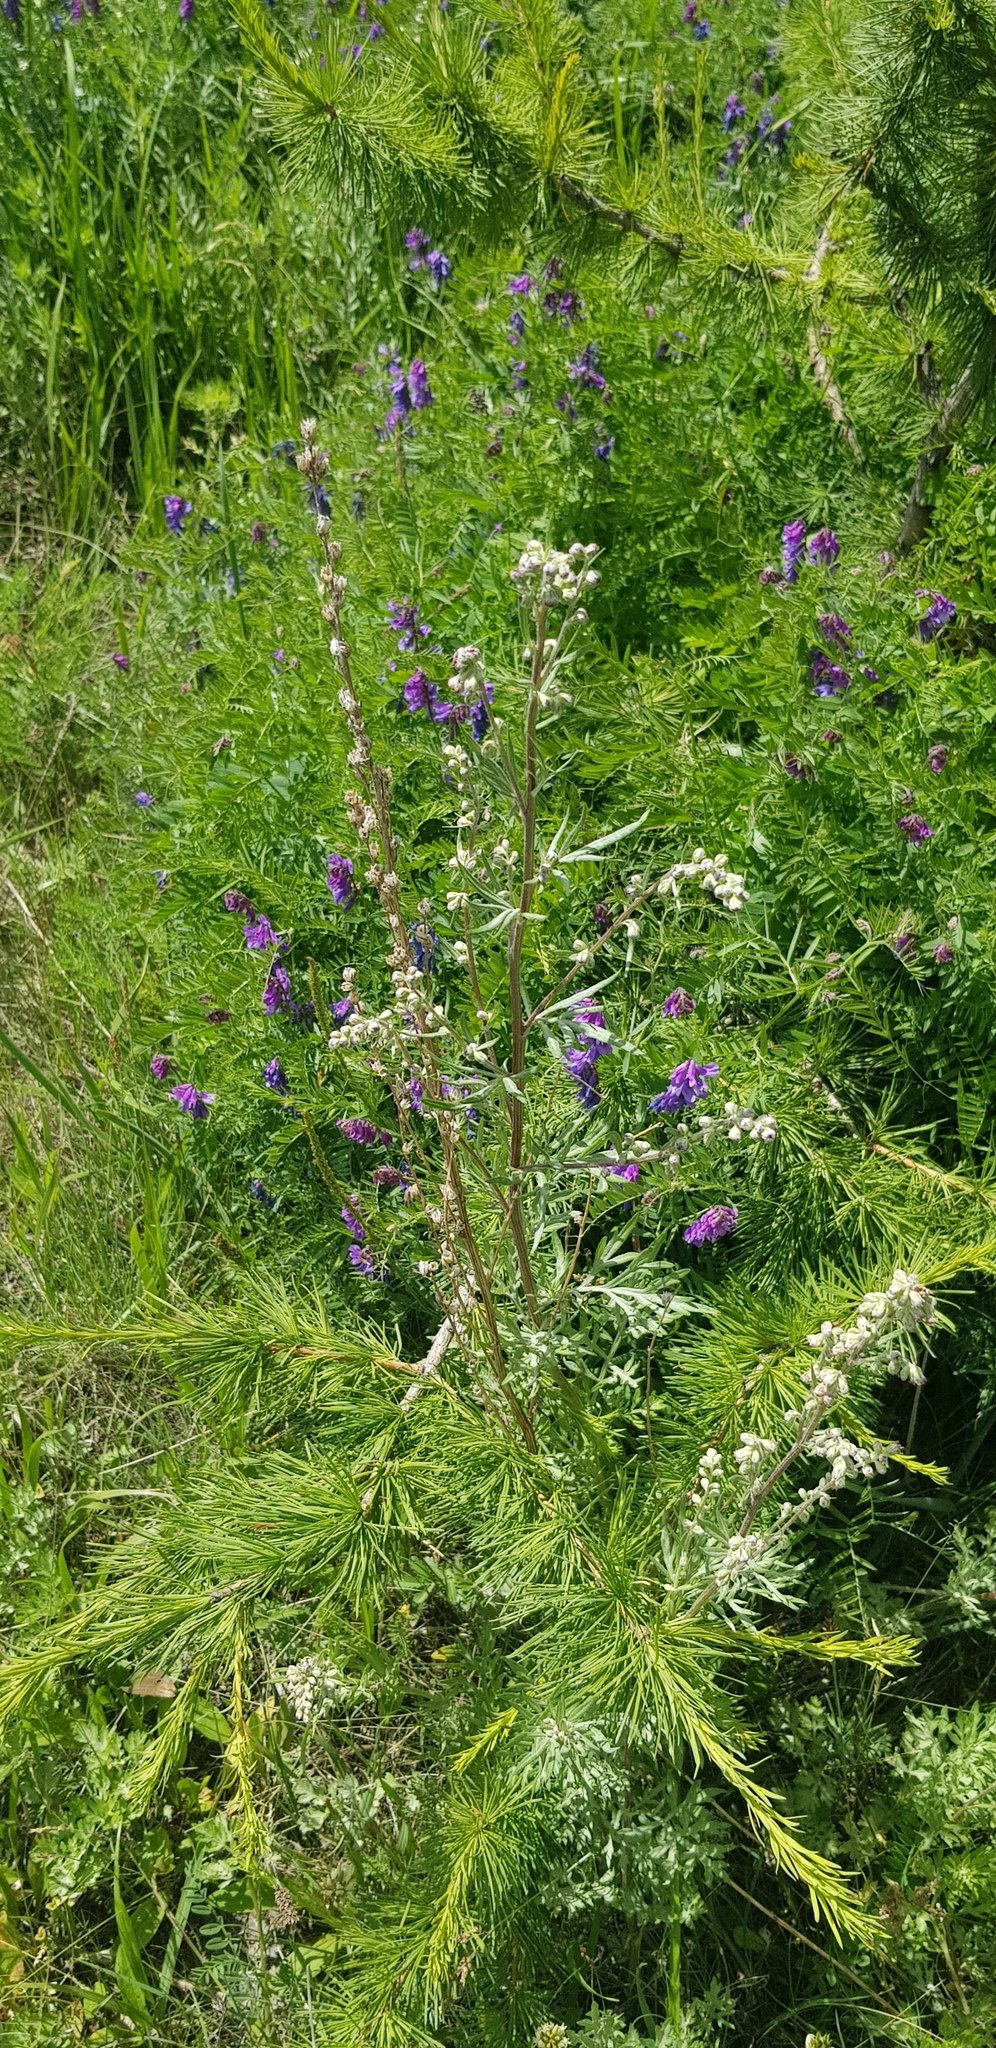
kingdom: Plantae
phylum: Tracheophyta
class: Magnoliopsida
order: Asterales
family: Asteraceae
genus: Artemisia
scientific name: Artemisia vulgaris
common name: Mugwort
